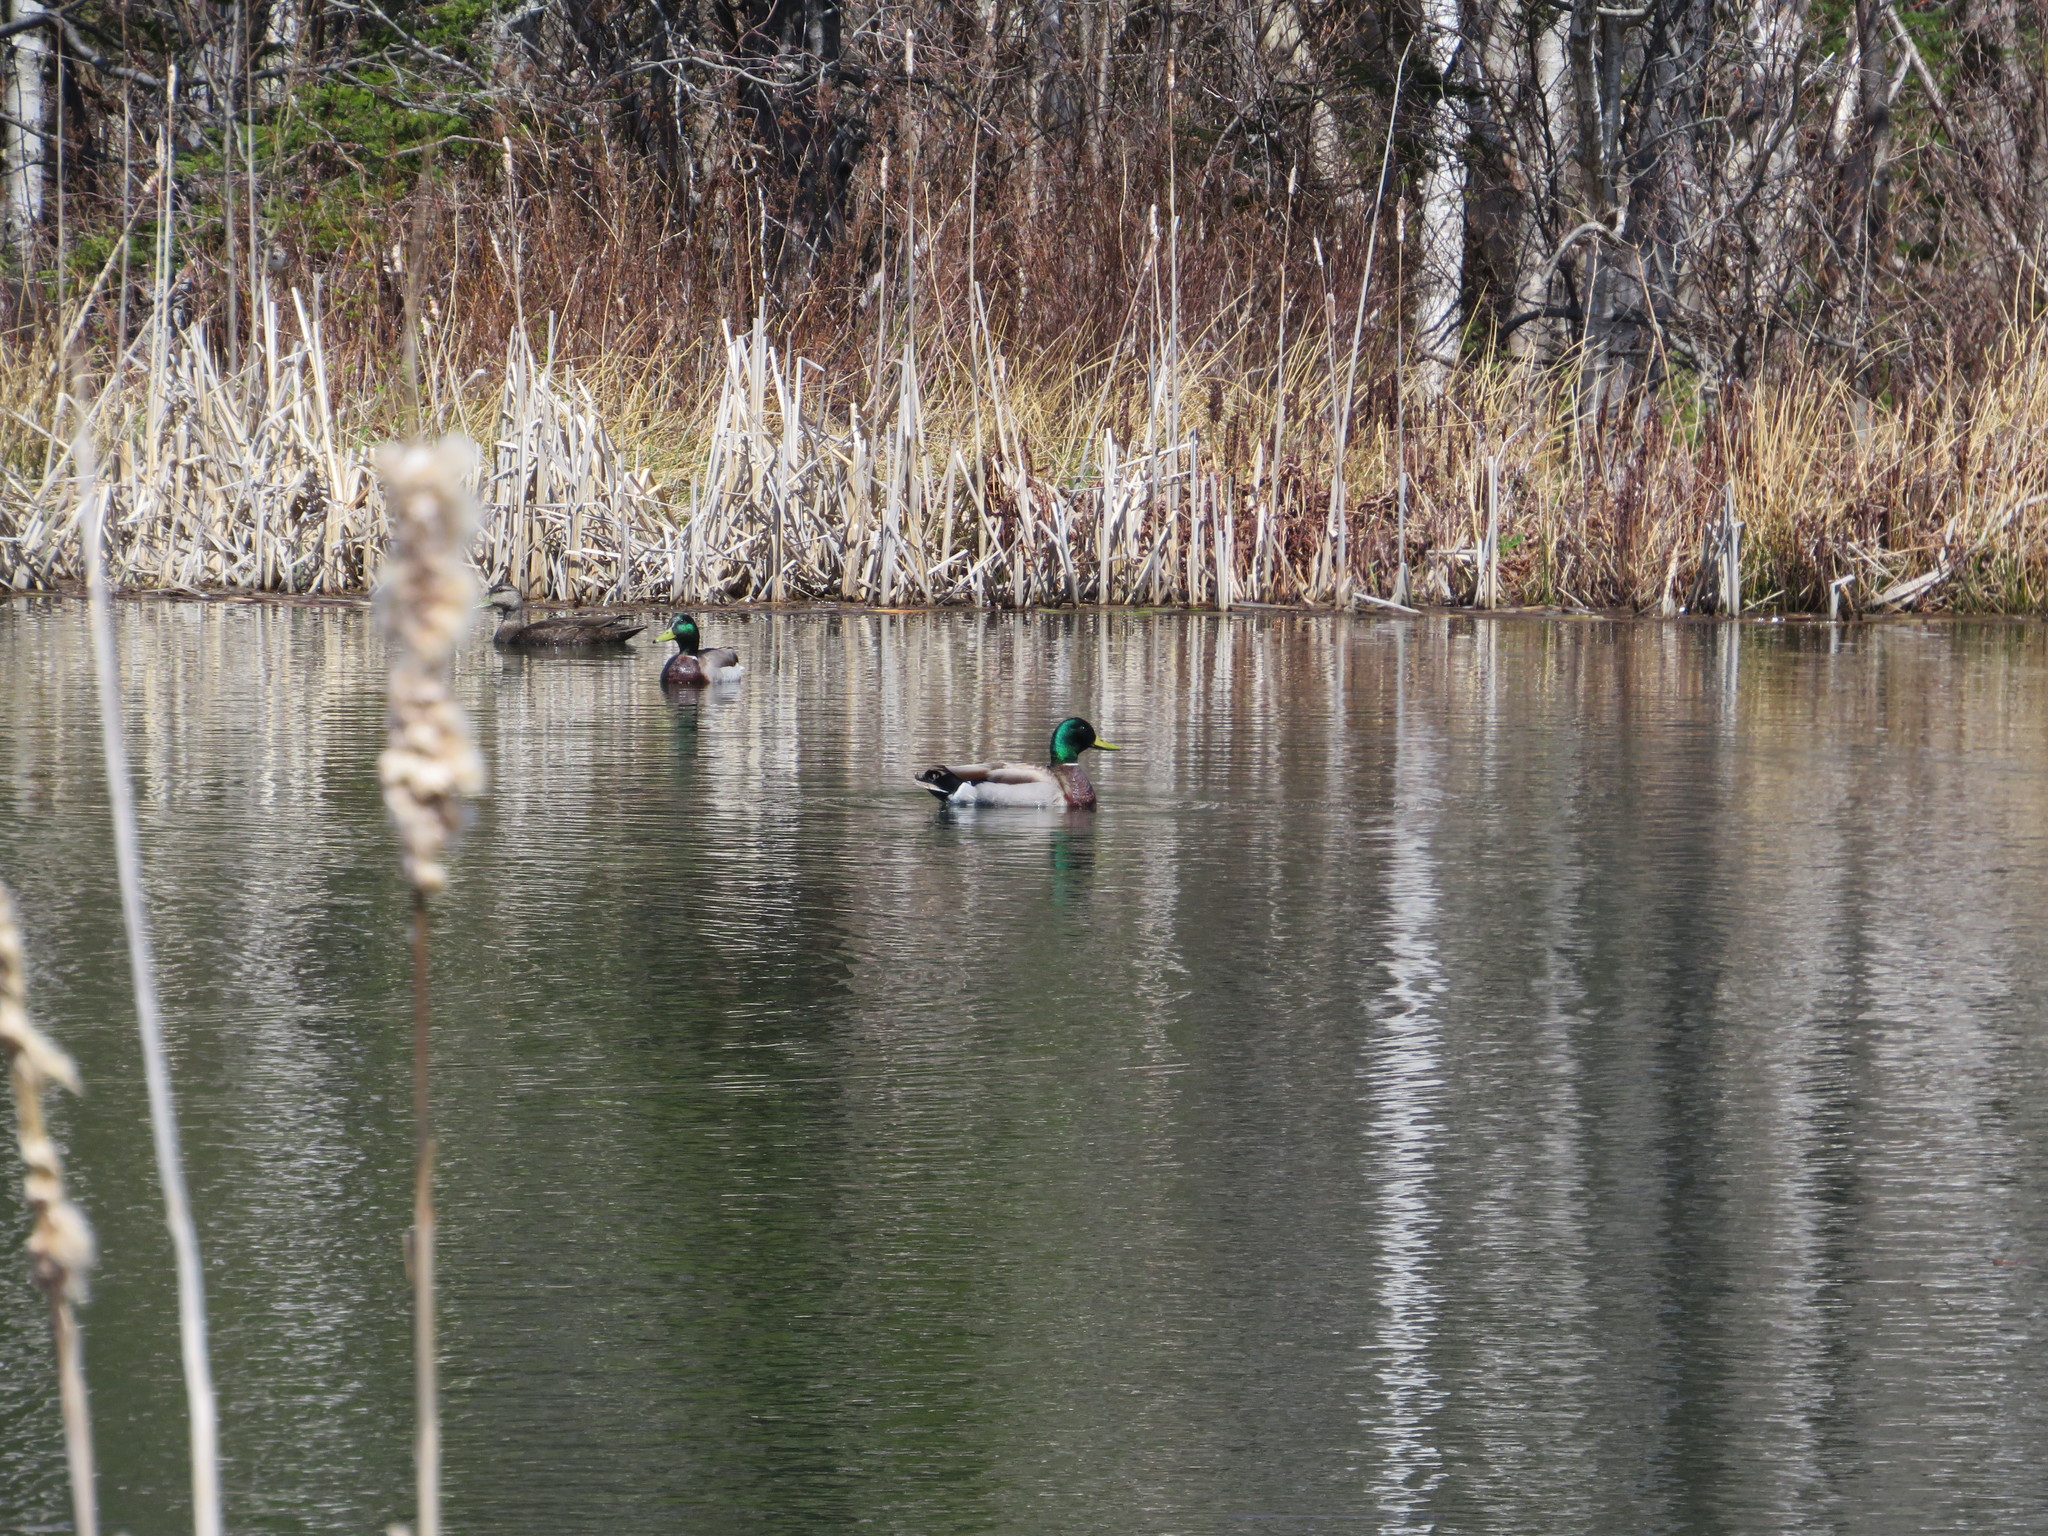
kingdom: Animalia
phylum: Chordata
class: Aves
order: Anseriformes
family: Anatidae
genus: Anas
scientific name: Anas platyrhynchos
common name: Mallard
